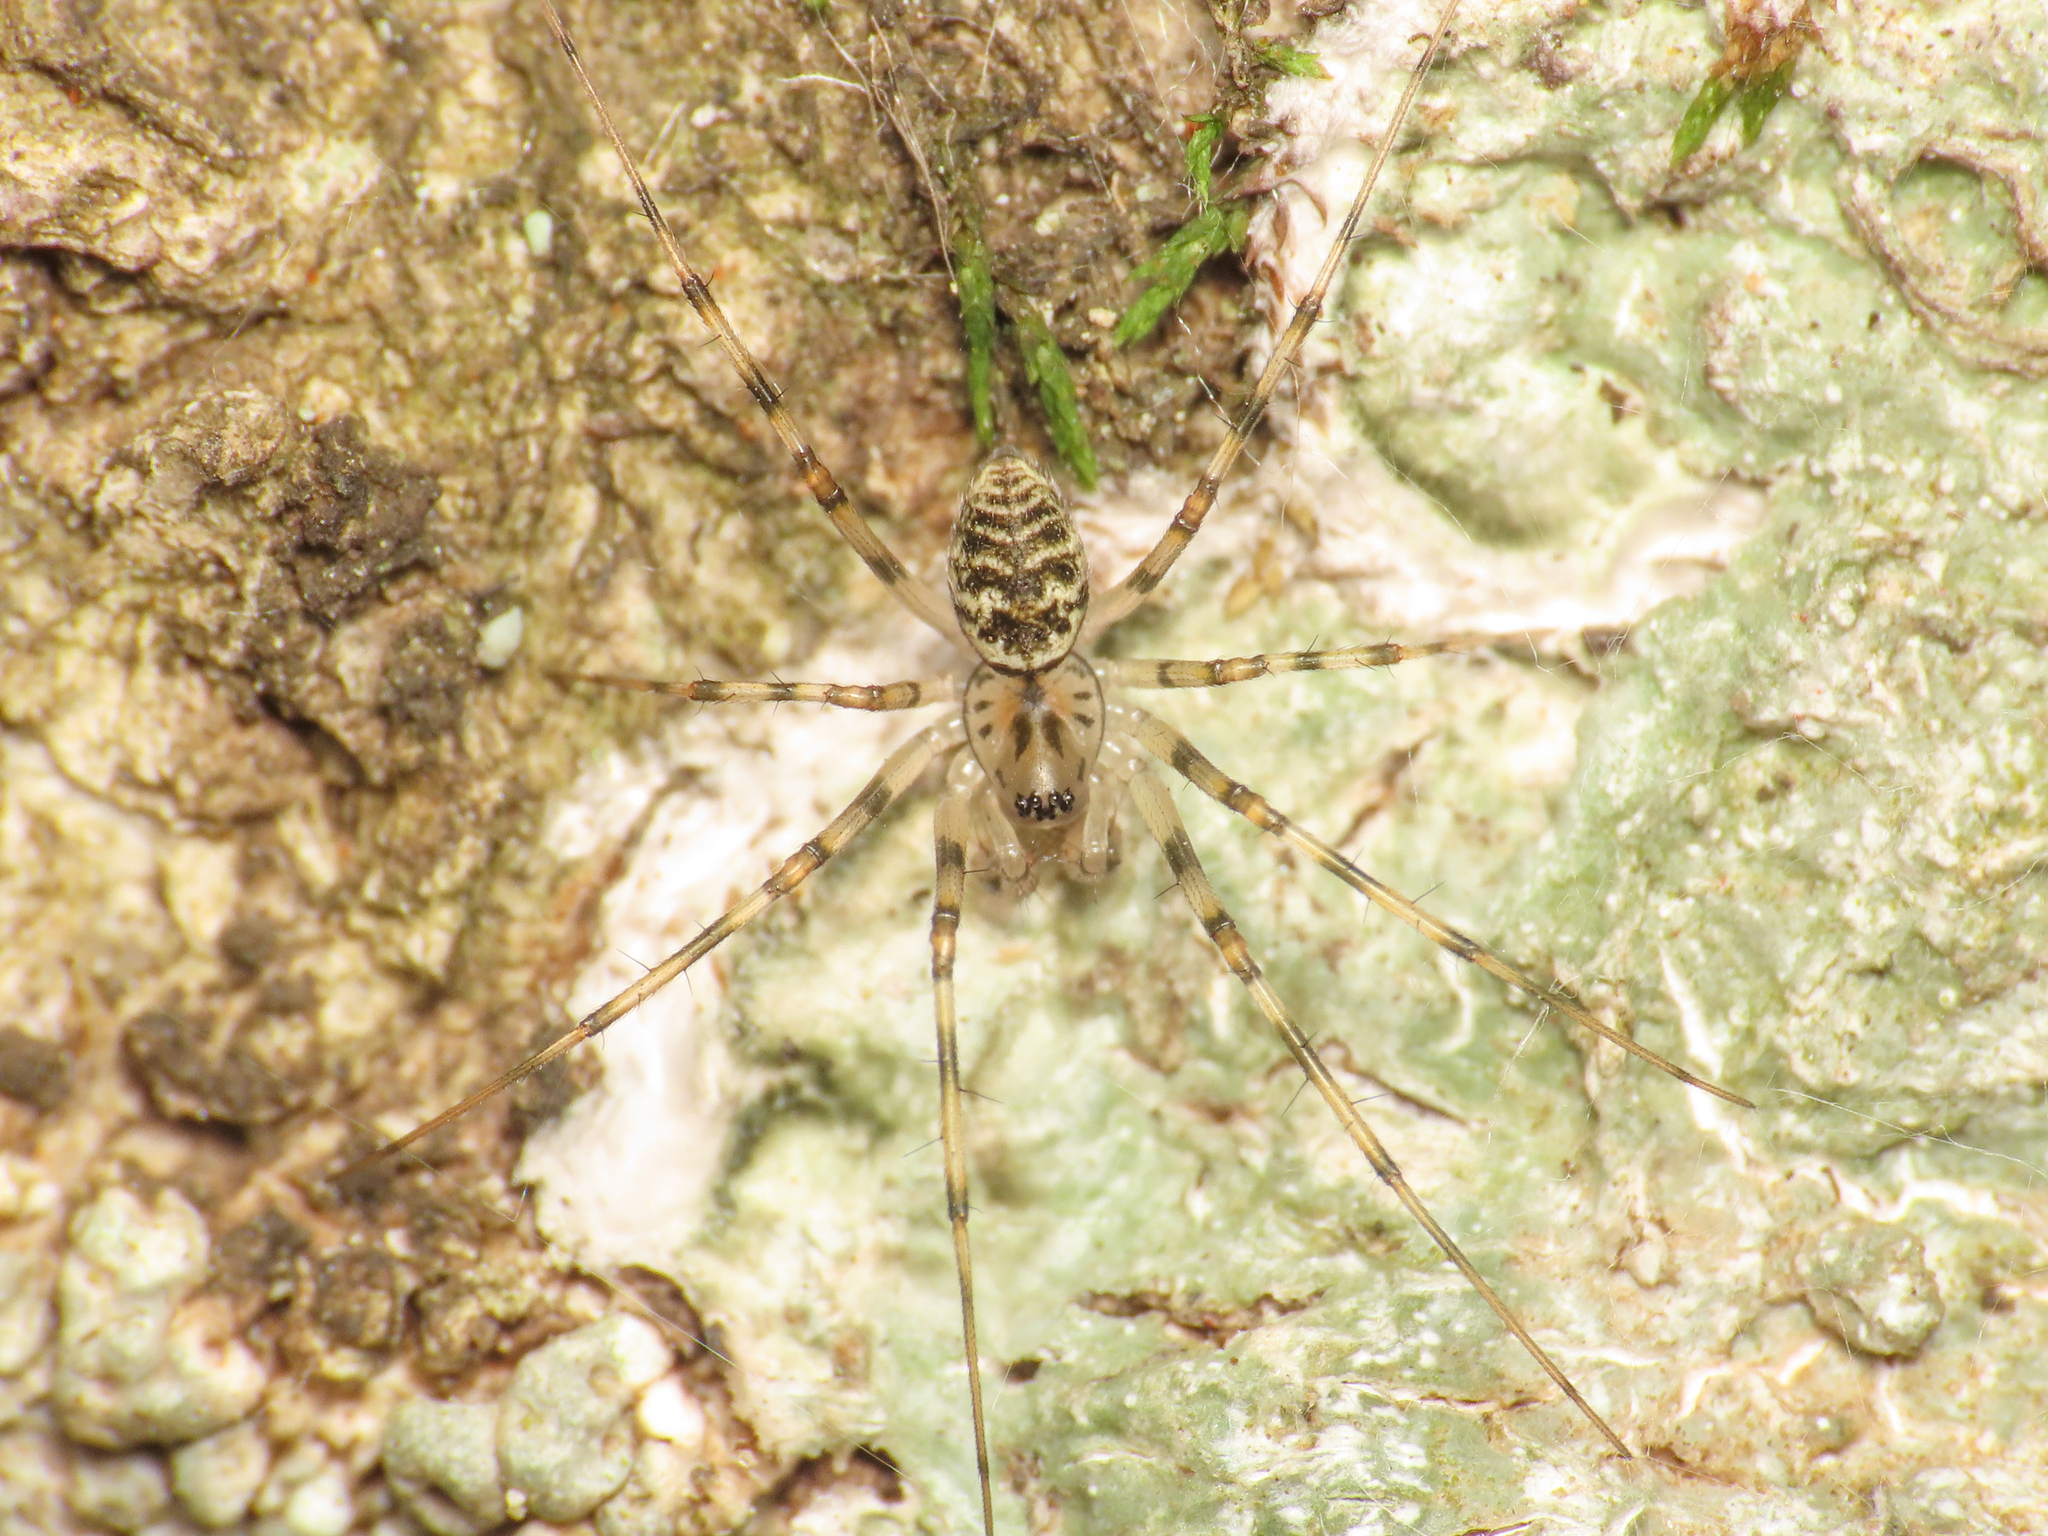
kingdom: Animalia
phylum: Arthropoda
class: Arachnida
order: Araneae
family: Linyphiidae
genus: Drapetisca
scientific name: Drapetisca socialis
